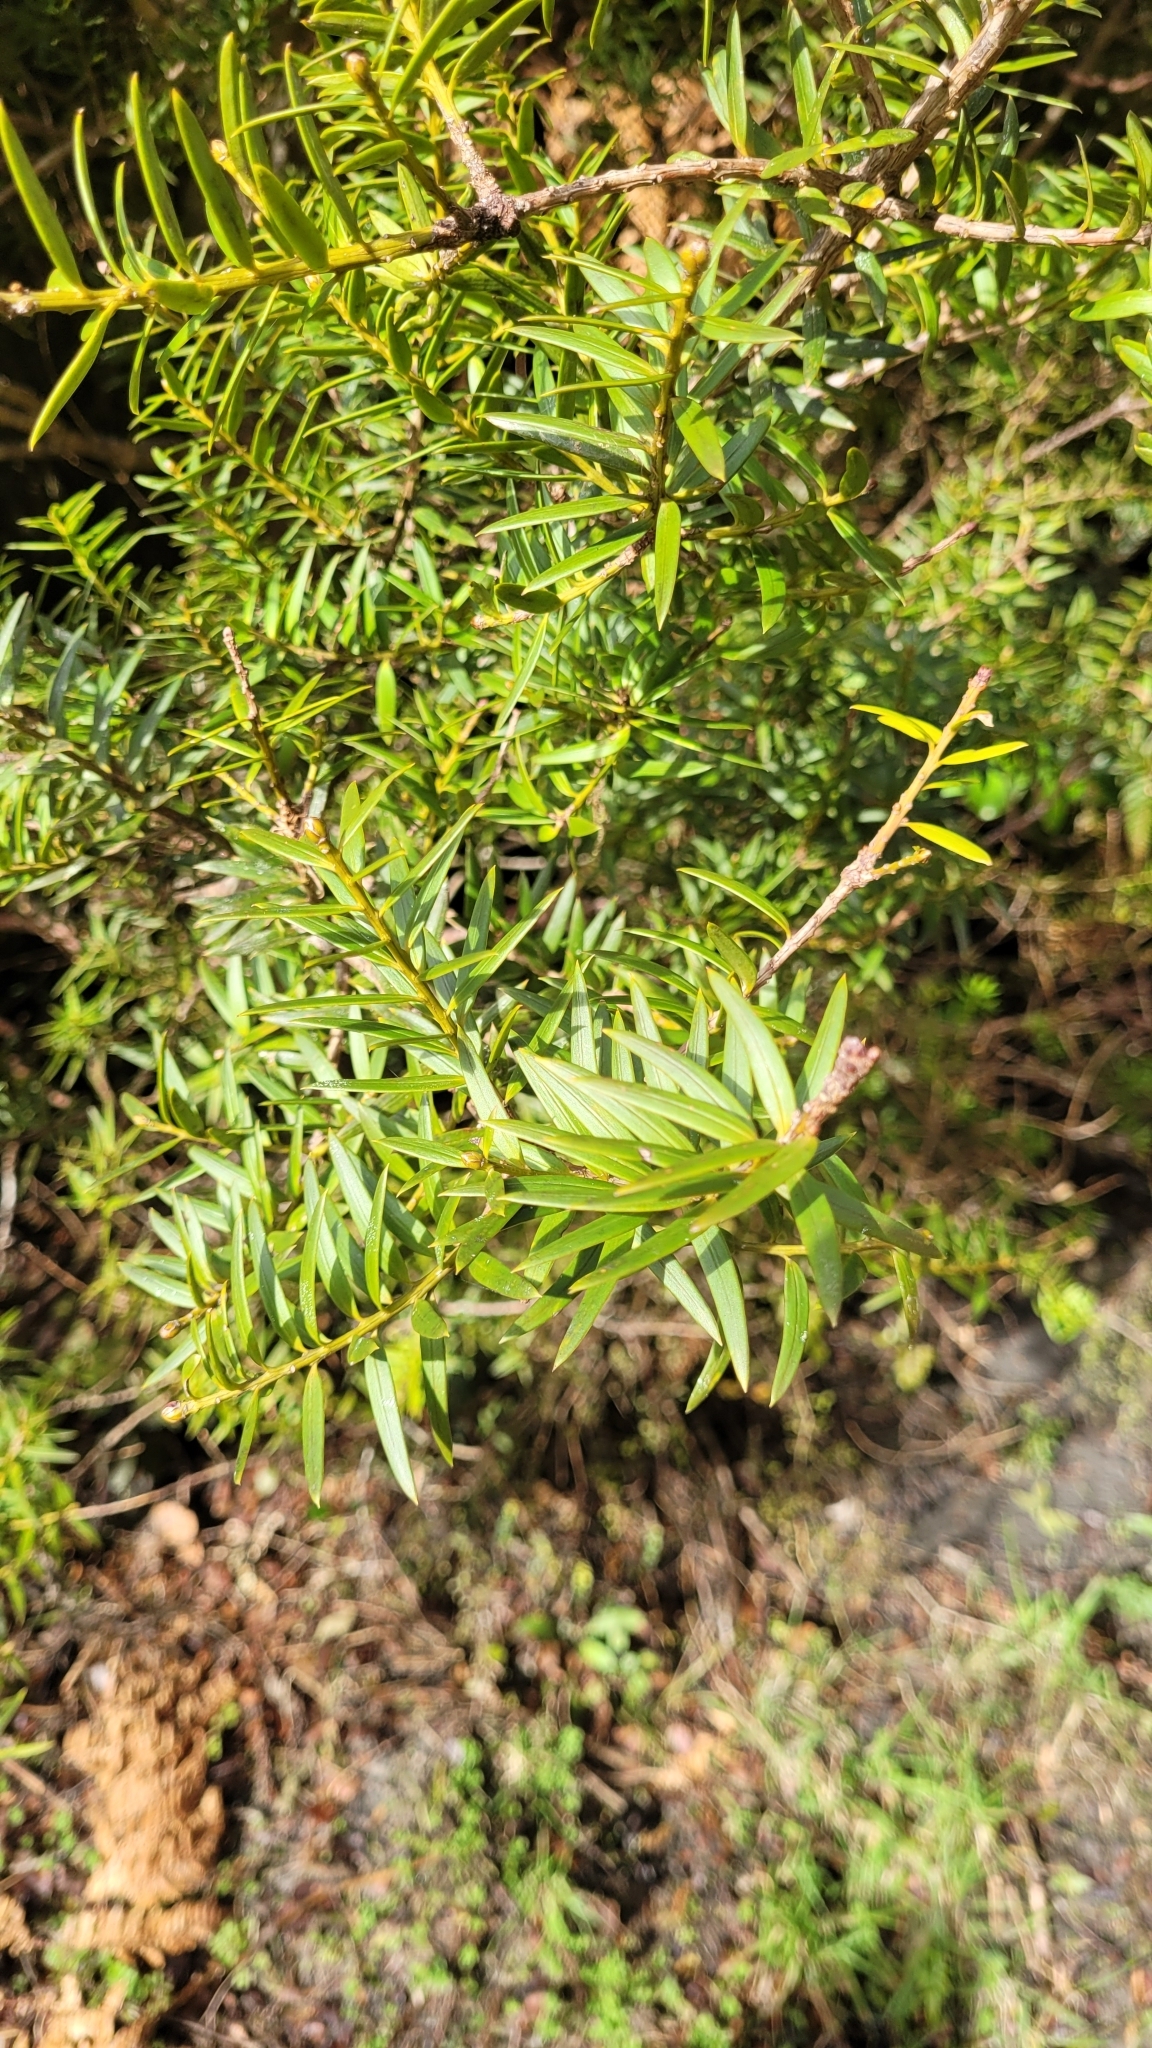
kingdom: Plantae
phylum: Tracheophyta
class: Pinopsida
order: Pinales
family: Podocarpaceae
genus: Podocarpus
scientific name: Podocarpus totara
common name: Totara
